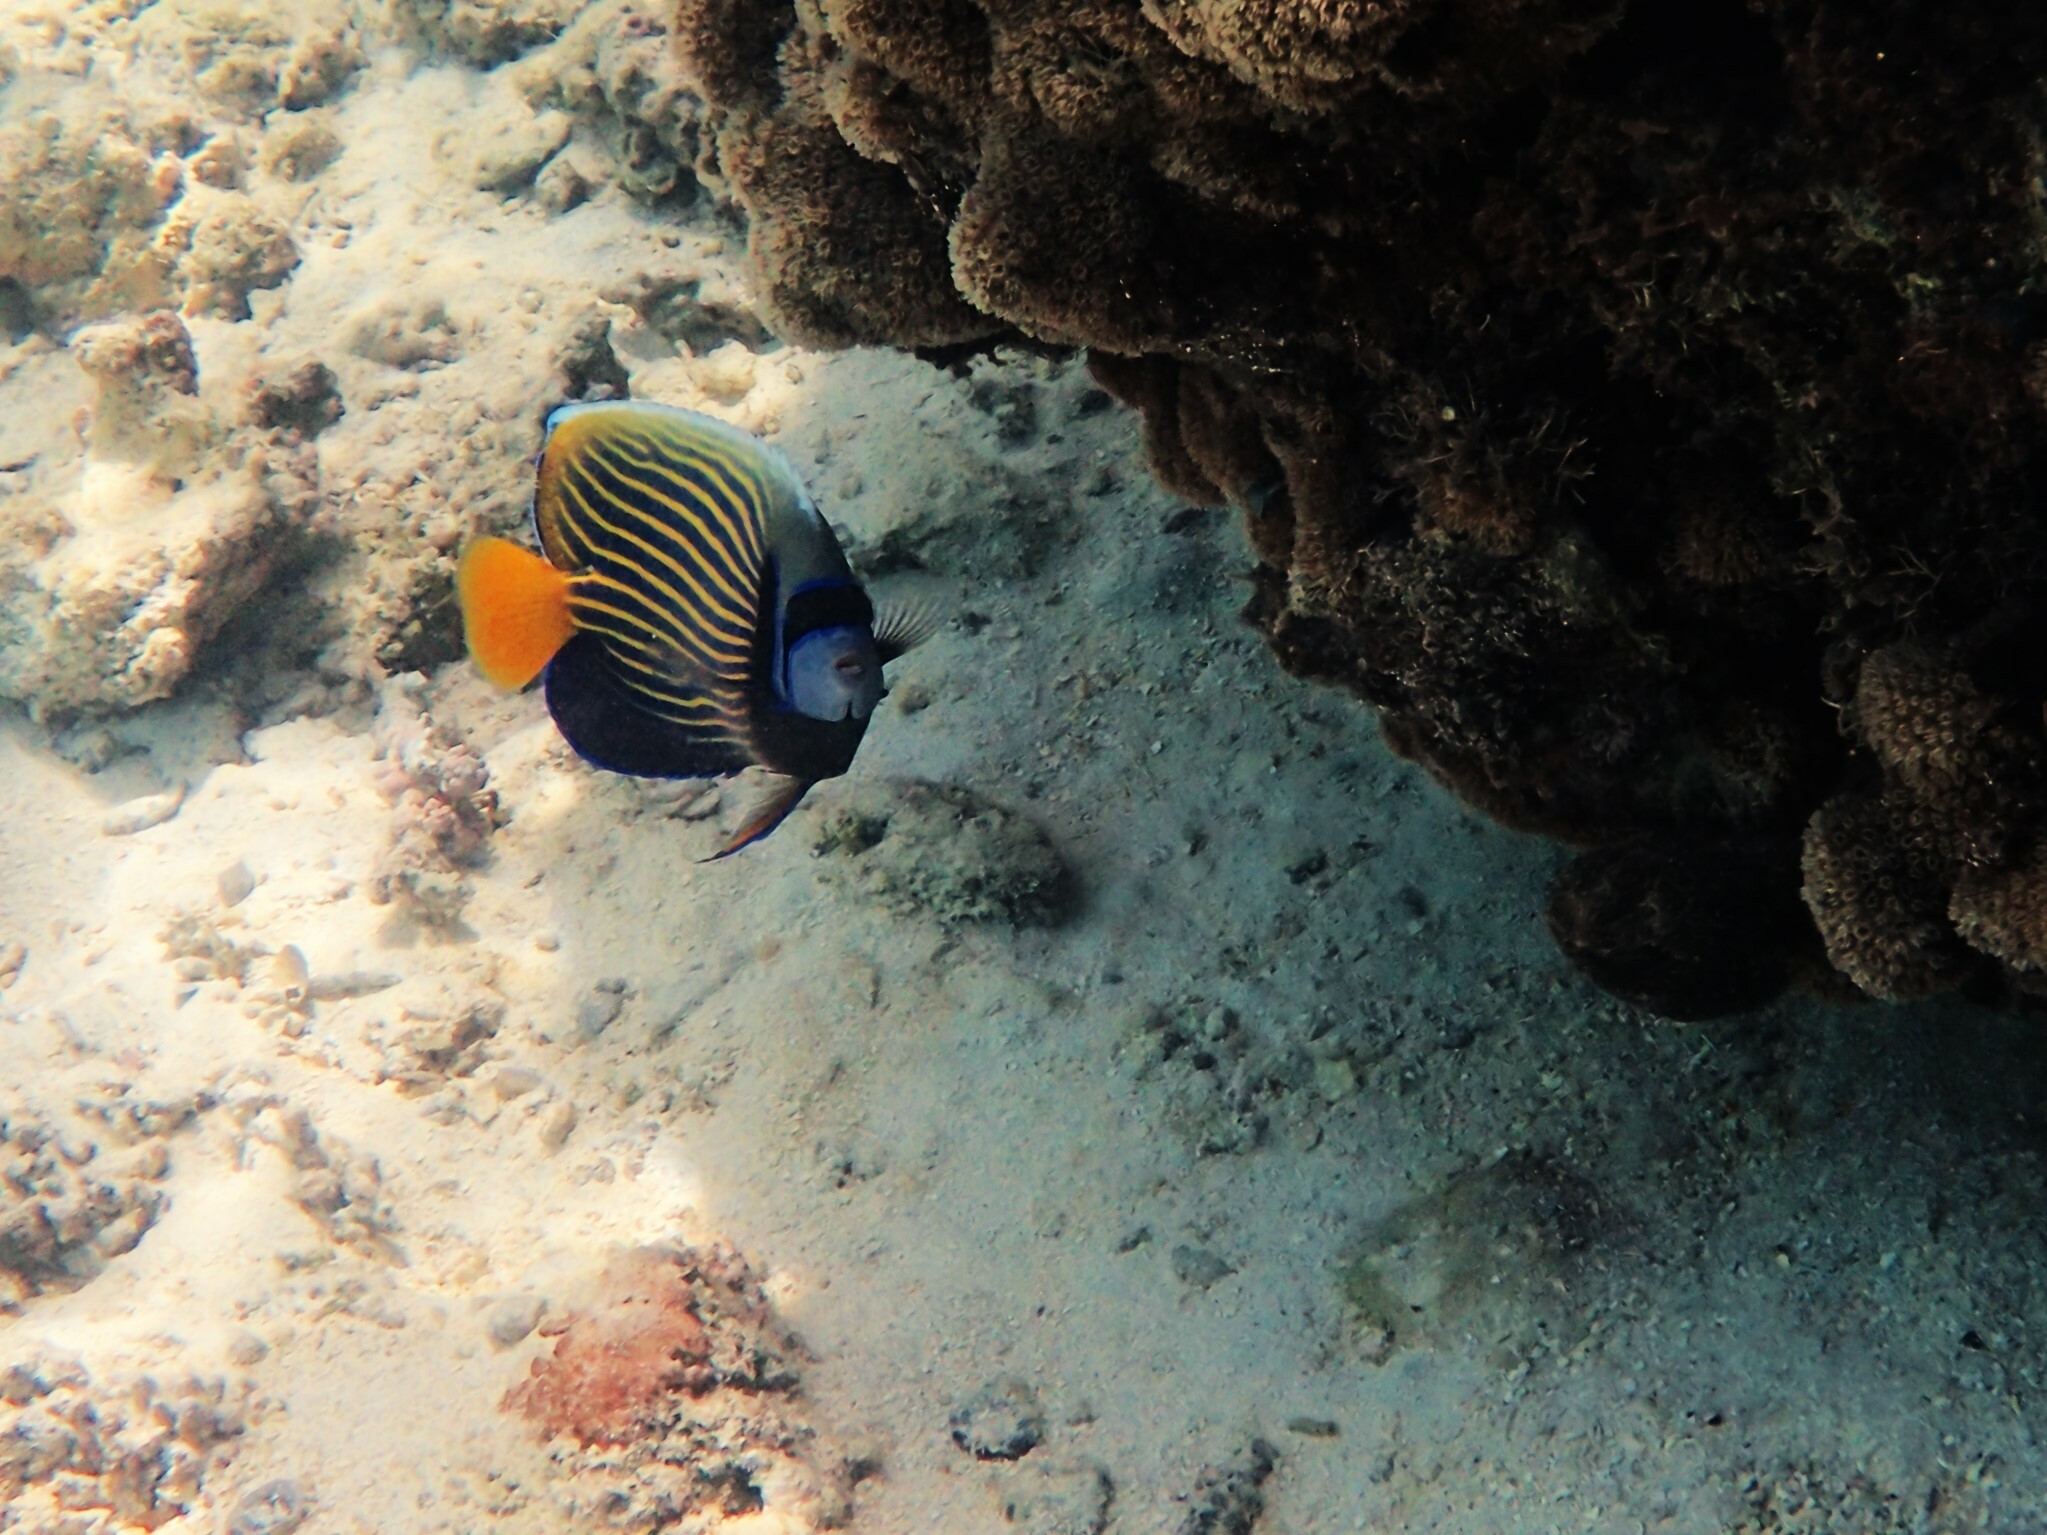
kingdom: Animalia
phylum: Chordata
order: Perciformes
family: Pomacanthidae
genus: Pomacanthus
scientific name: Pomacanthus imperator
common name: Emperor angelfish
